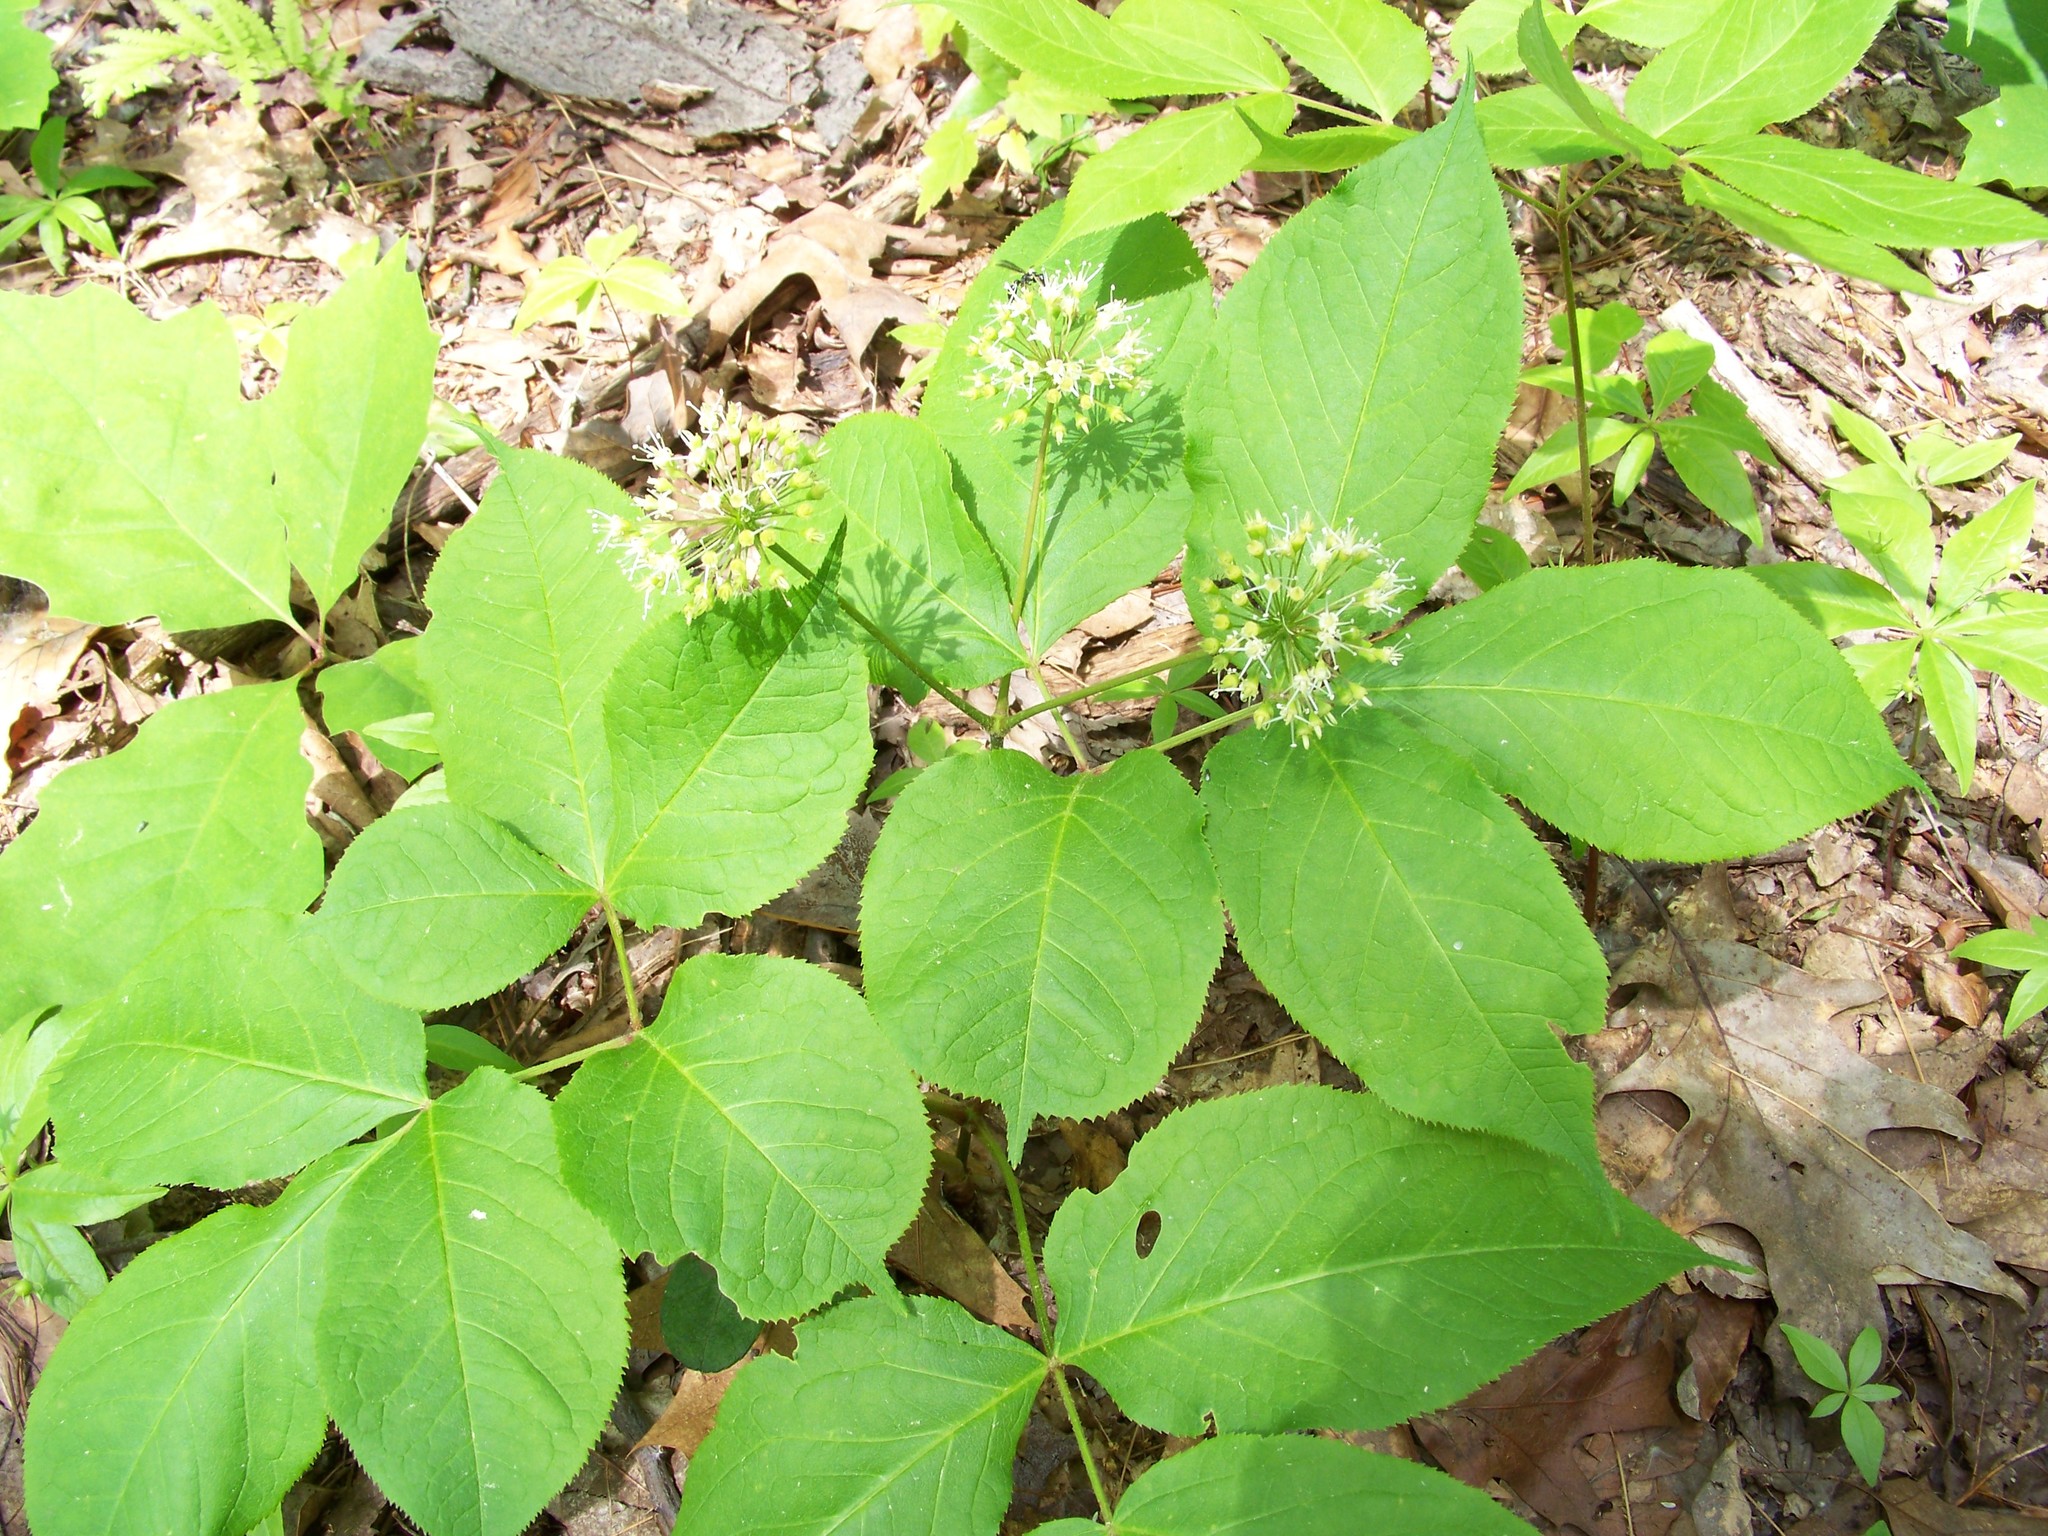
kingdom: Plantae
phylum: Tracheophyta
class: Magnoliopsida
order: Apiales
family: Araliaceae
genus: Aralia
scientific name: Aralia nudicaulis
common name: Wild sarsaparilla
